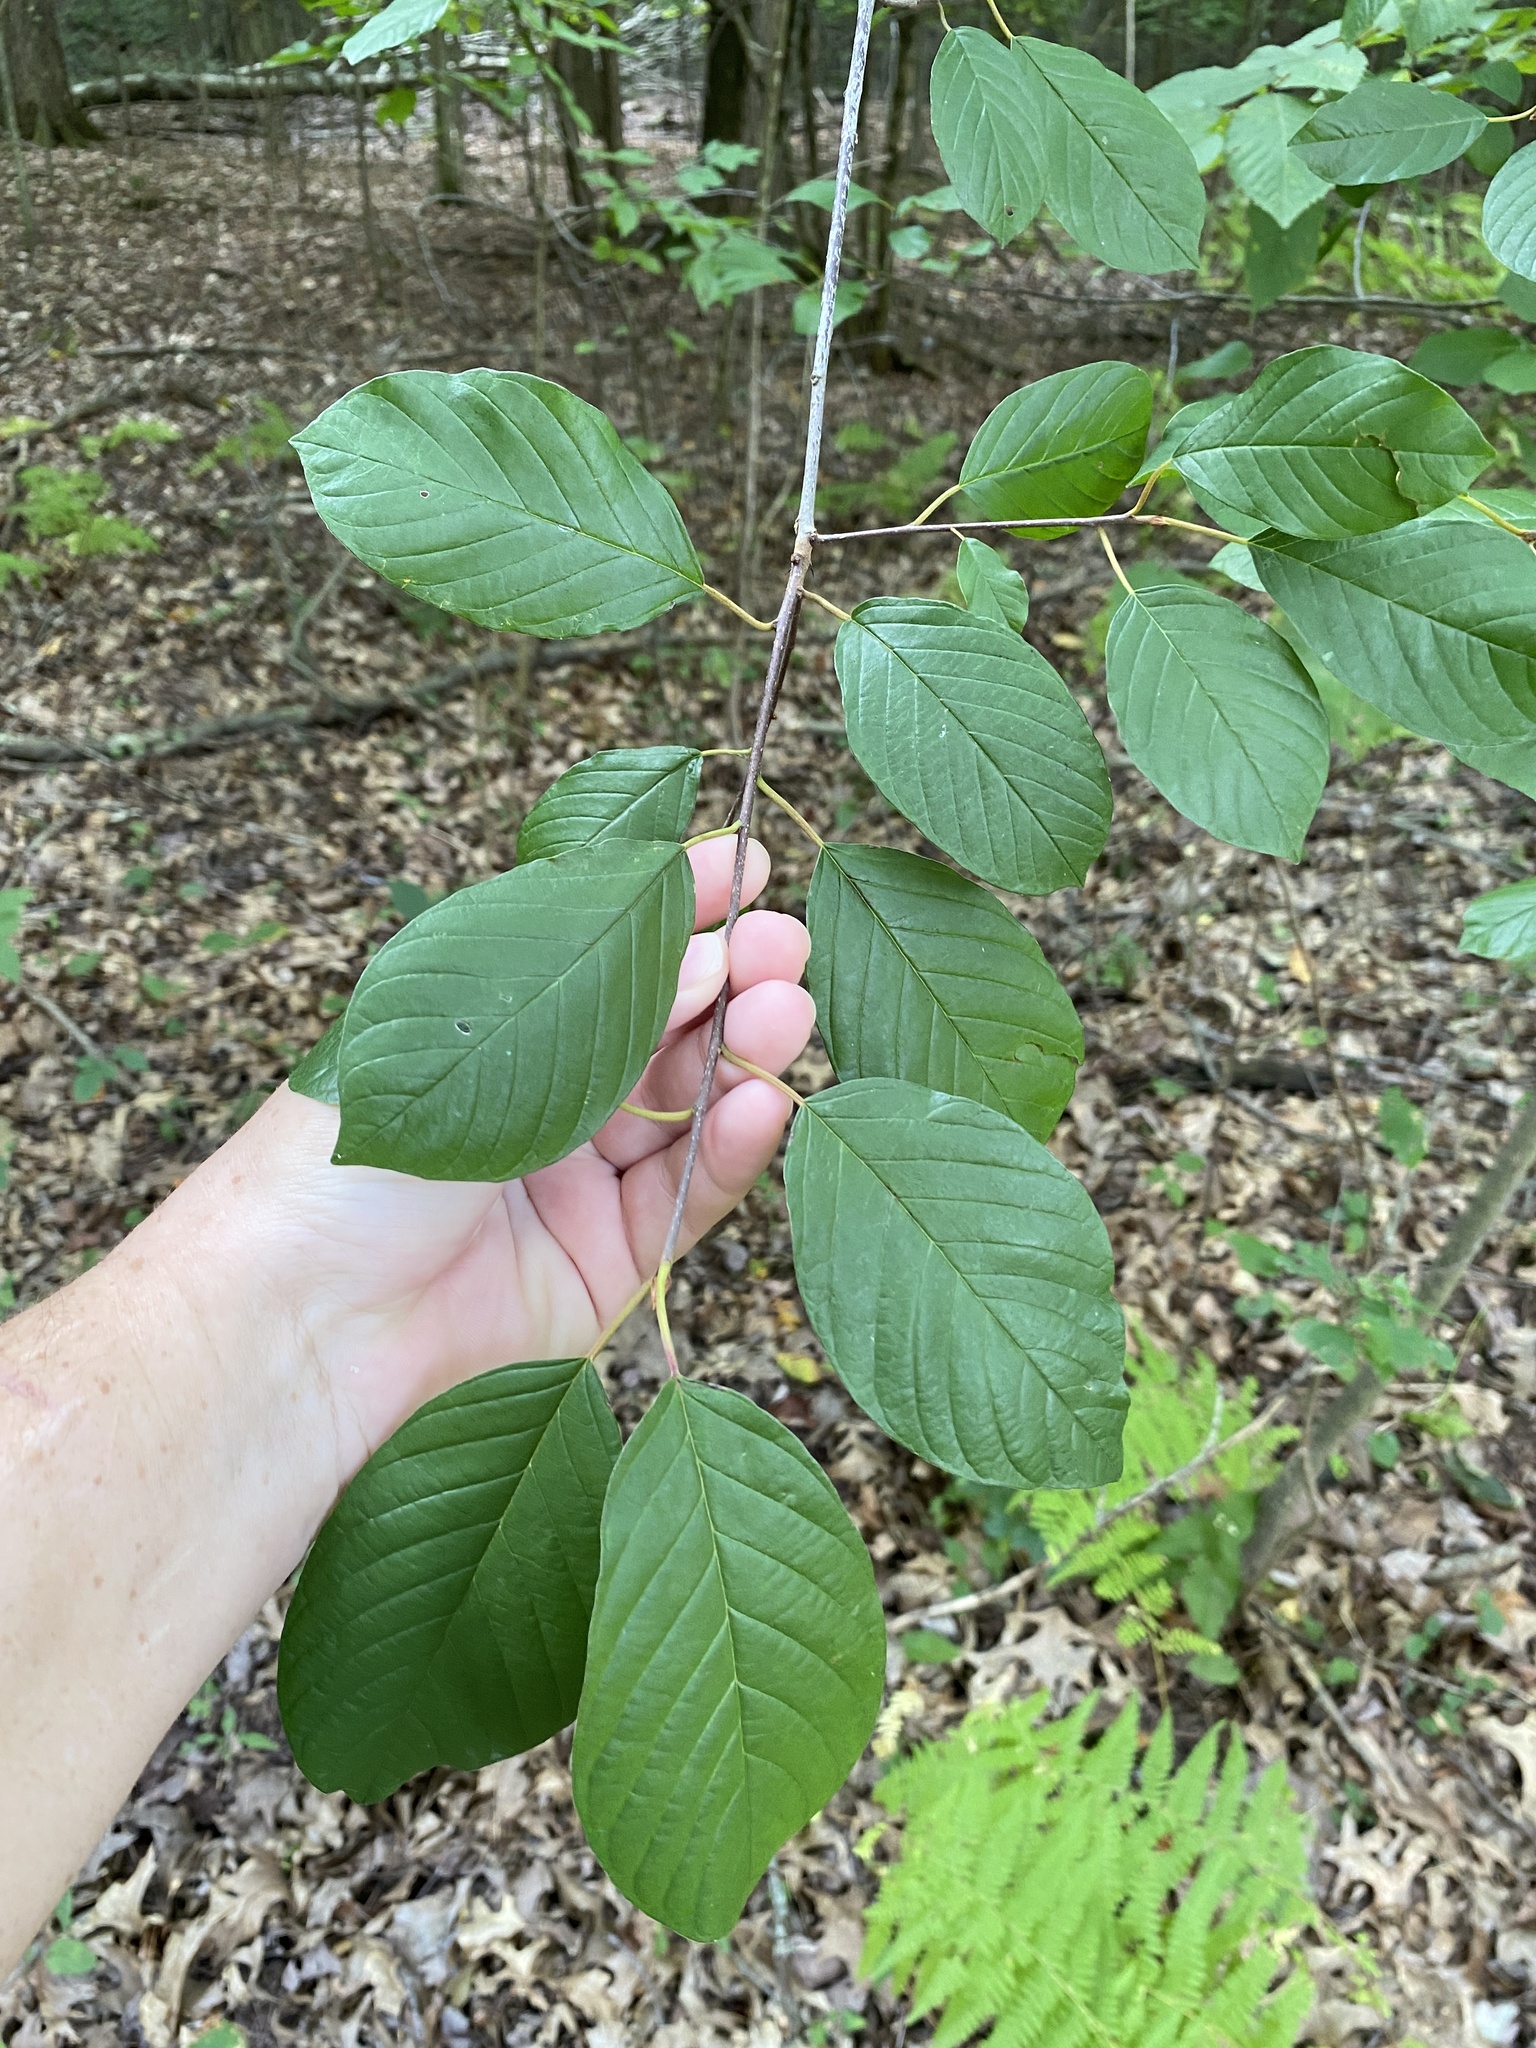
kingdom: Plantae
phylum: Tracheophyta
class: Magnoliopsida
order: Rosales
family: Rhamnaceae
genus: Frangula
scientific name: Frangula alnus
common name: Alder buckthorn
